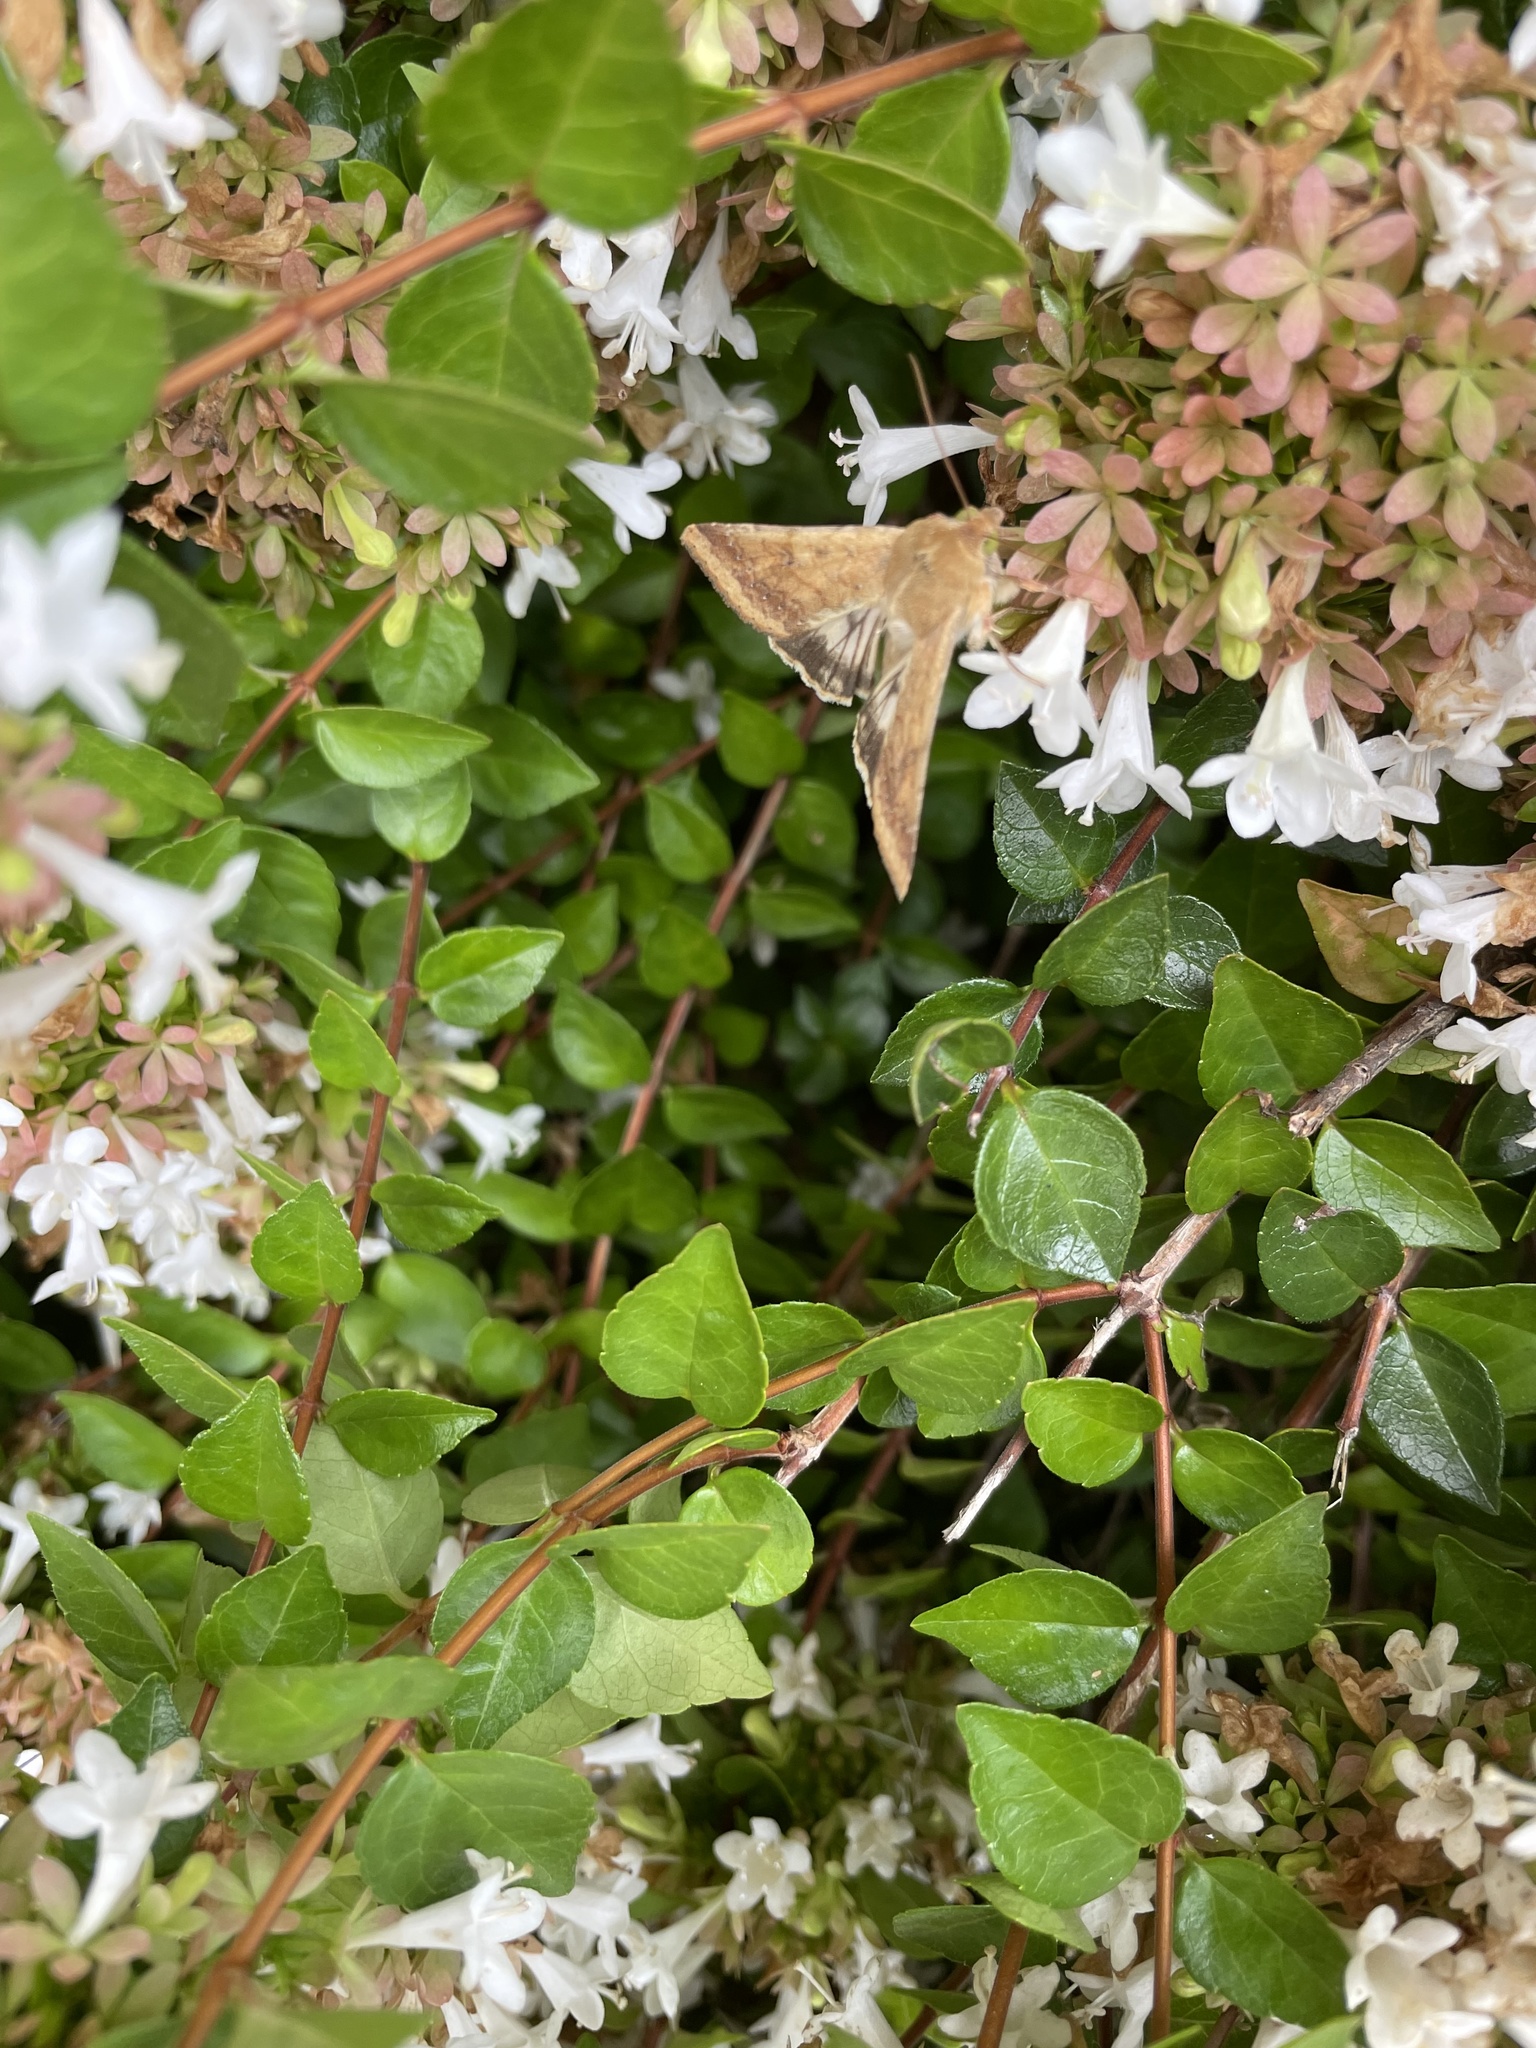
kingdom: Animalia
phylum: Arthropoda
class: Insecta
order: Lepidoptera
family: Noctuidae
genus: Helicoverpa
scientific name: Helicoverpa zea
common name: Bollworm
